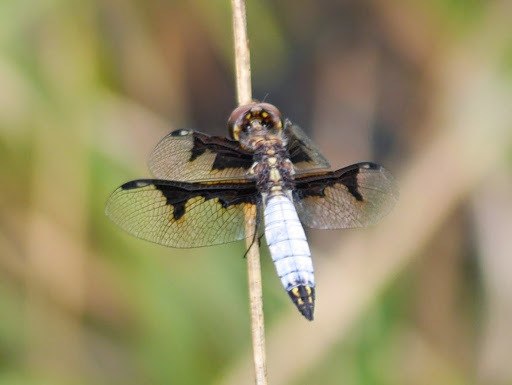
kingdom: Animalia
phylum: Arthropoda
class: Insecta
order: Odonata
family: Libellulidae
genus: Palpopleura
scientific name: Palpopleura albifrons
